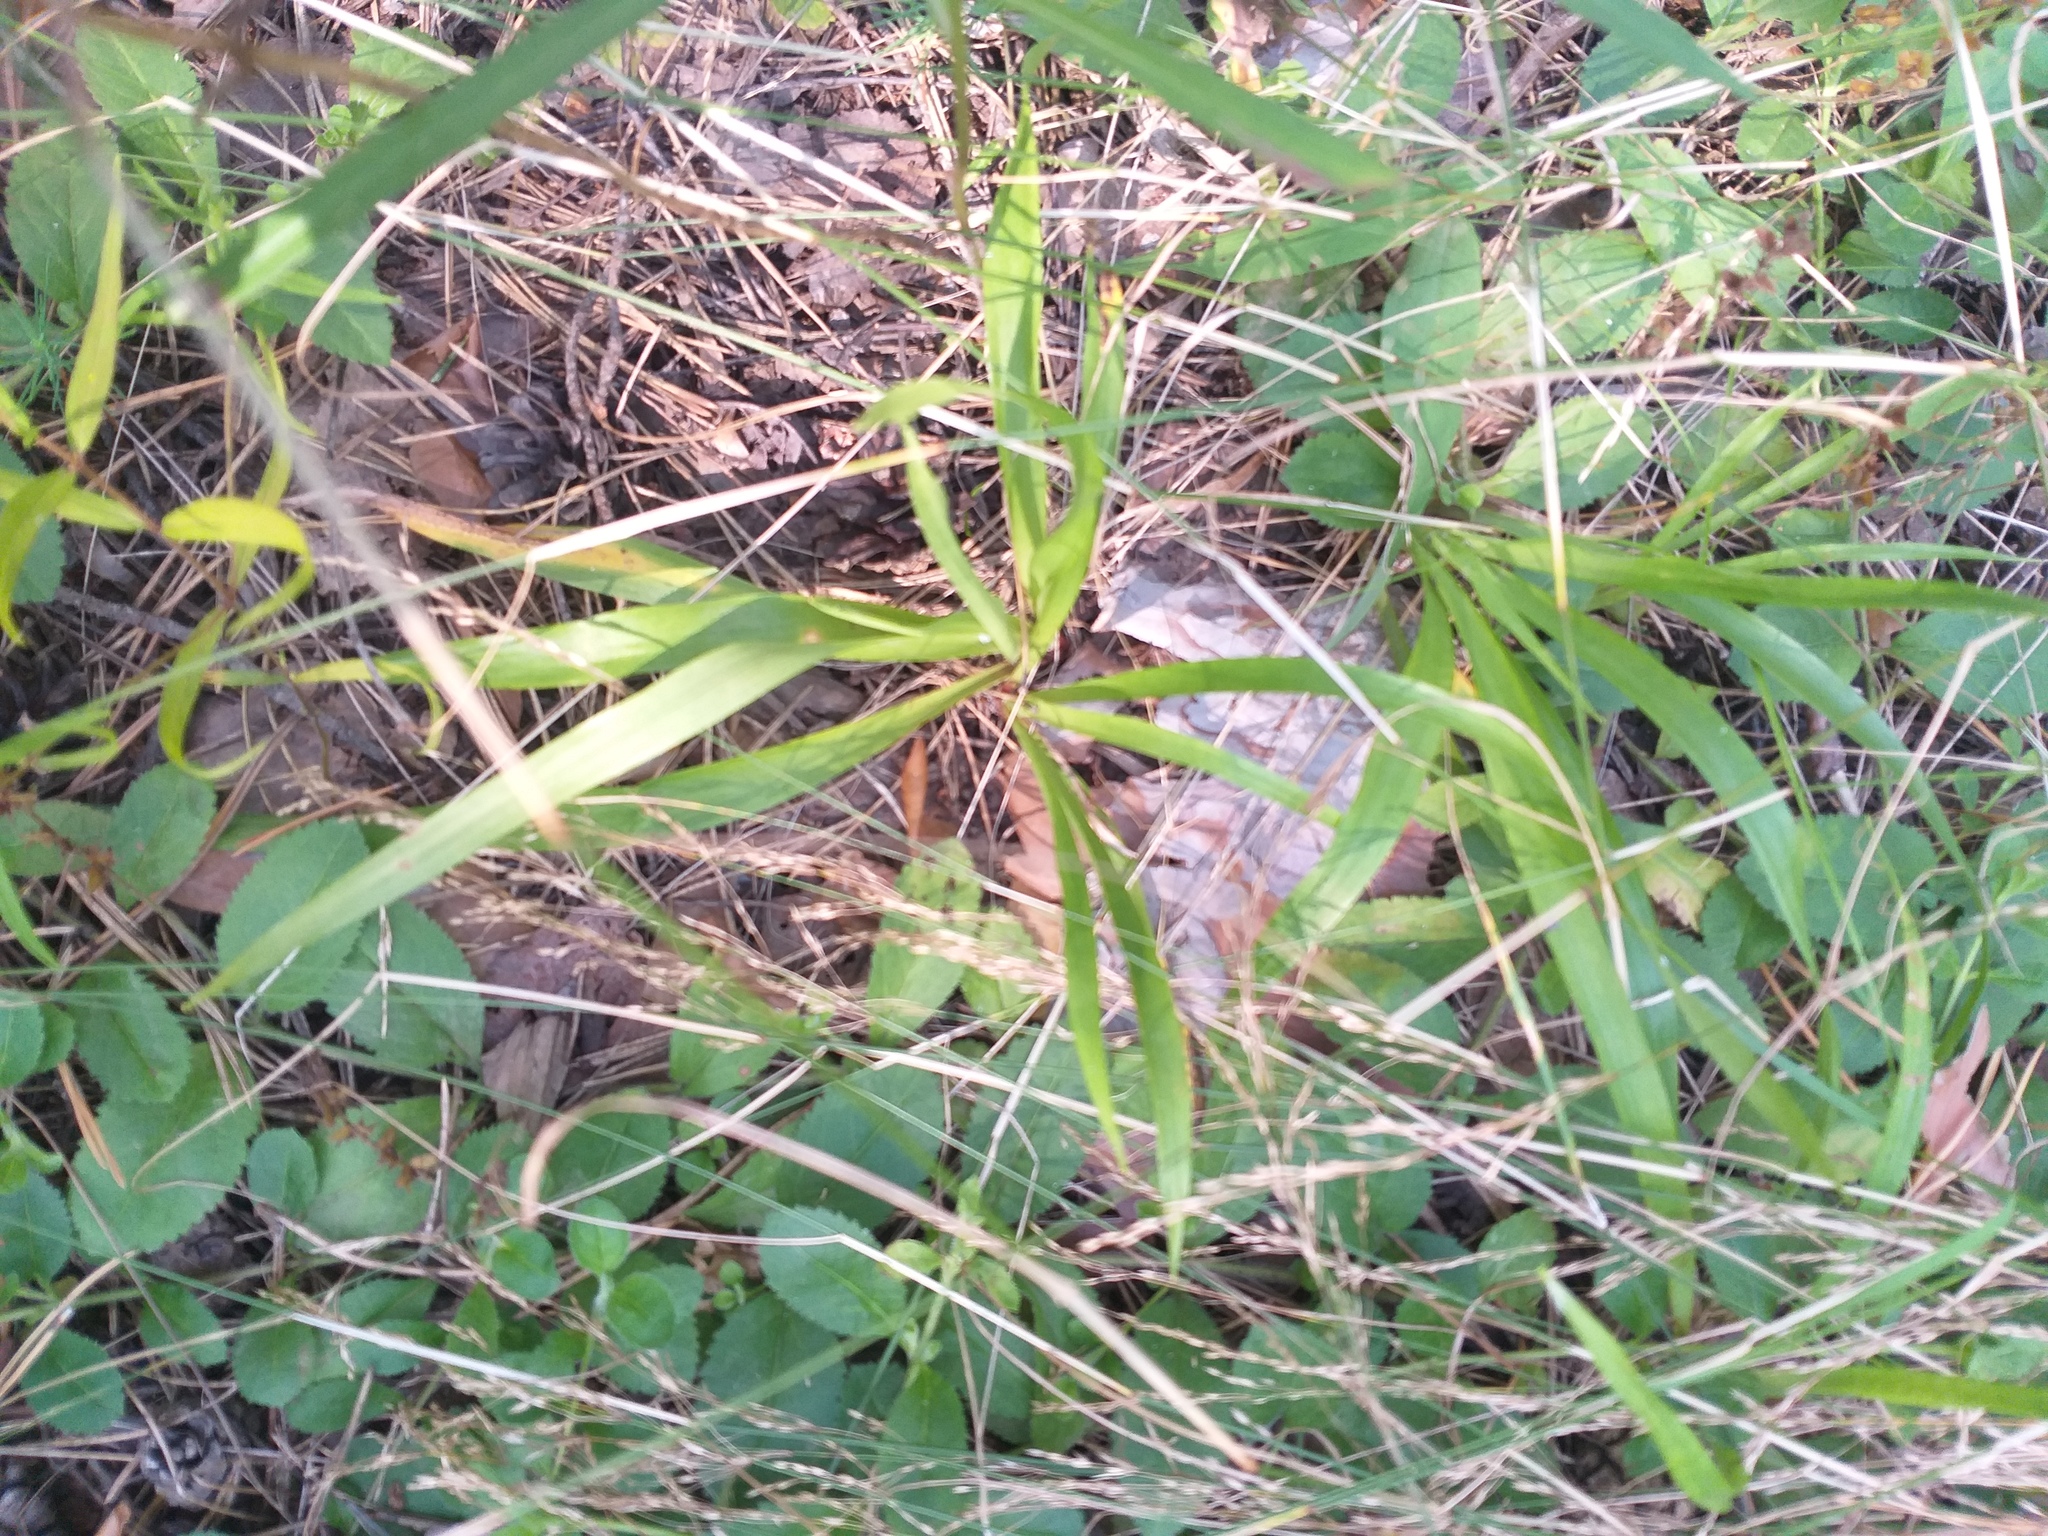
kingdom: Plantae
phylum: Tracheophyta
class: Liliopsida
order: Poales
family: Juncaceae
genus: Luzula
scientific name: Luzula pilosa
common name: Hairy wood-rush
